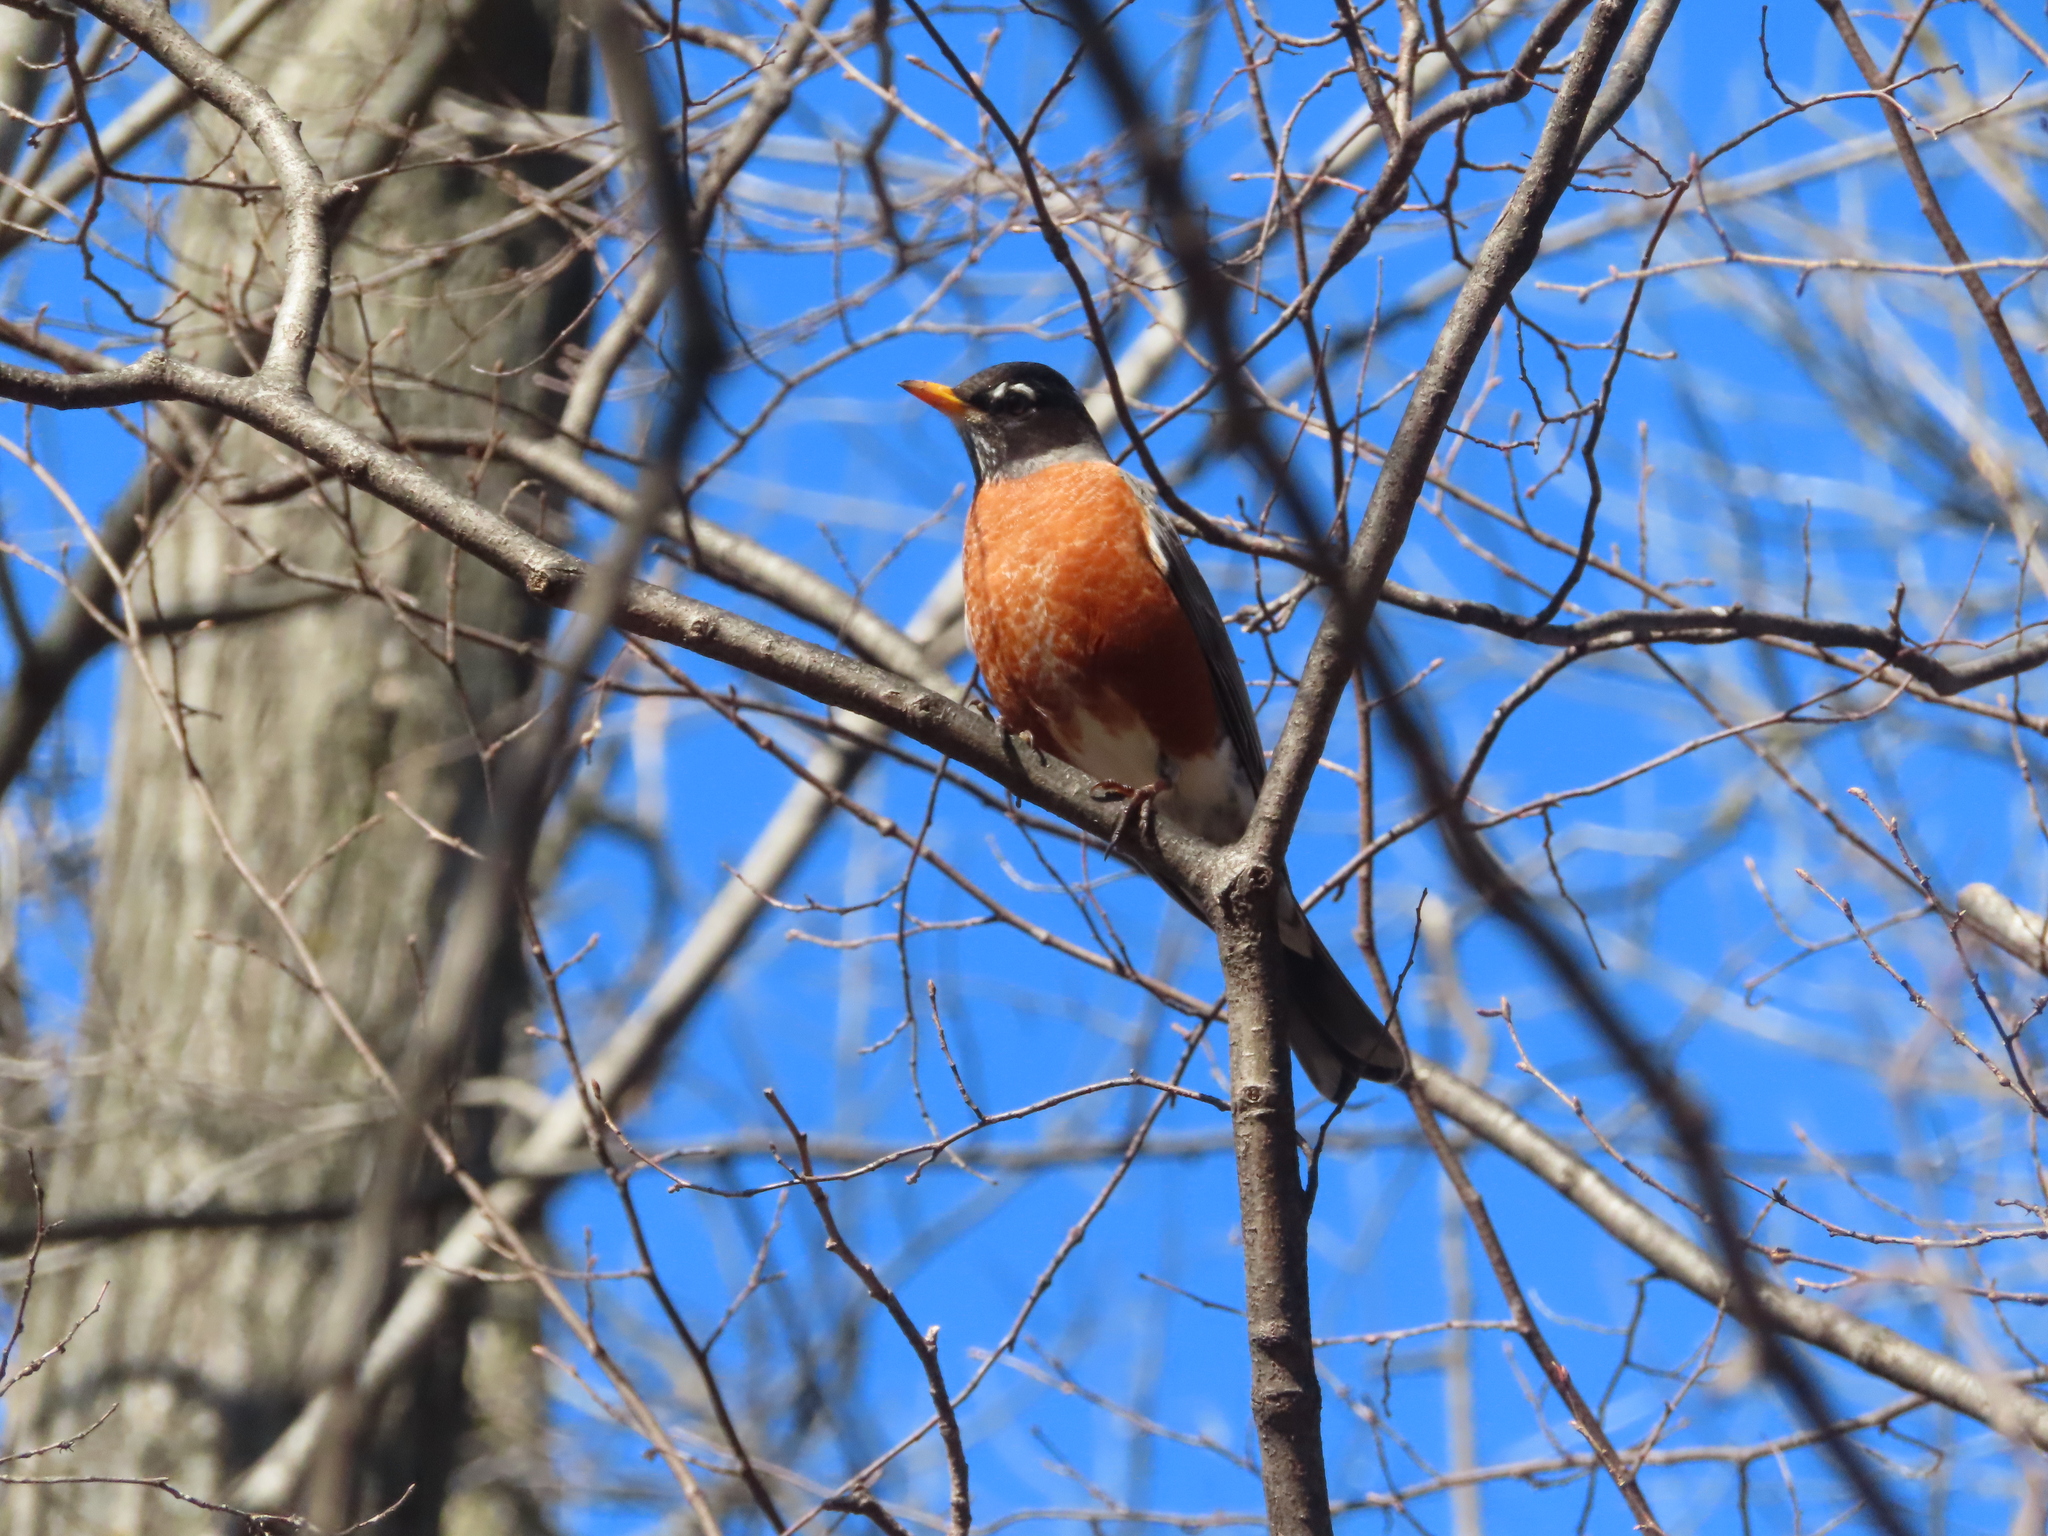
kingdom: Animalia
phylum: Chordata
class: Aves
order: Passeriformes
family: Turdidae
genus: Turdus
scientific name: Turdus migratorius
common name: American robin
